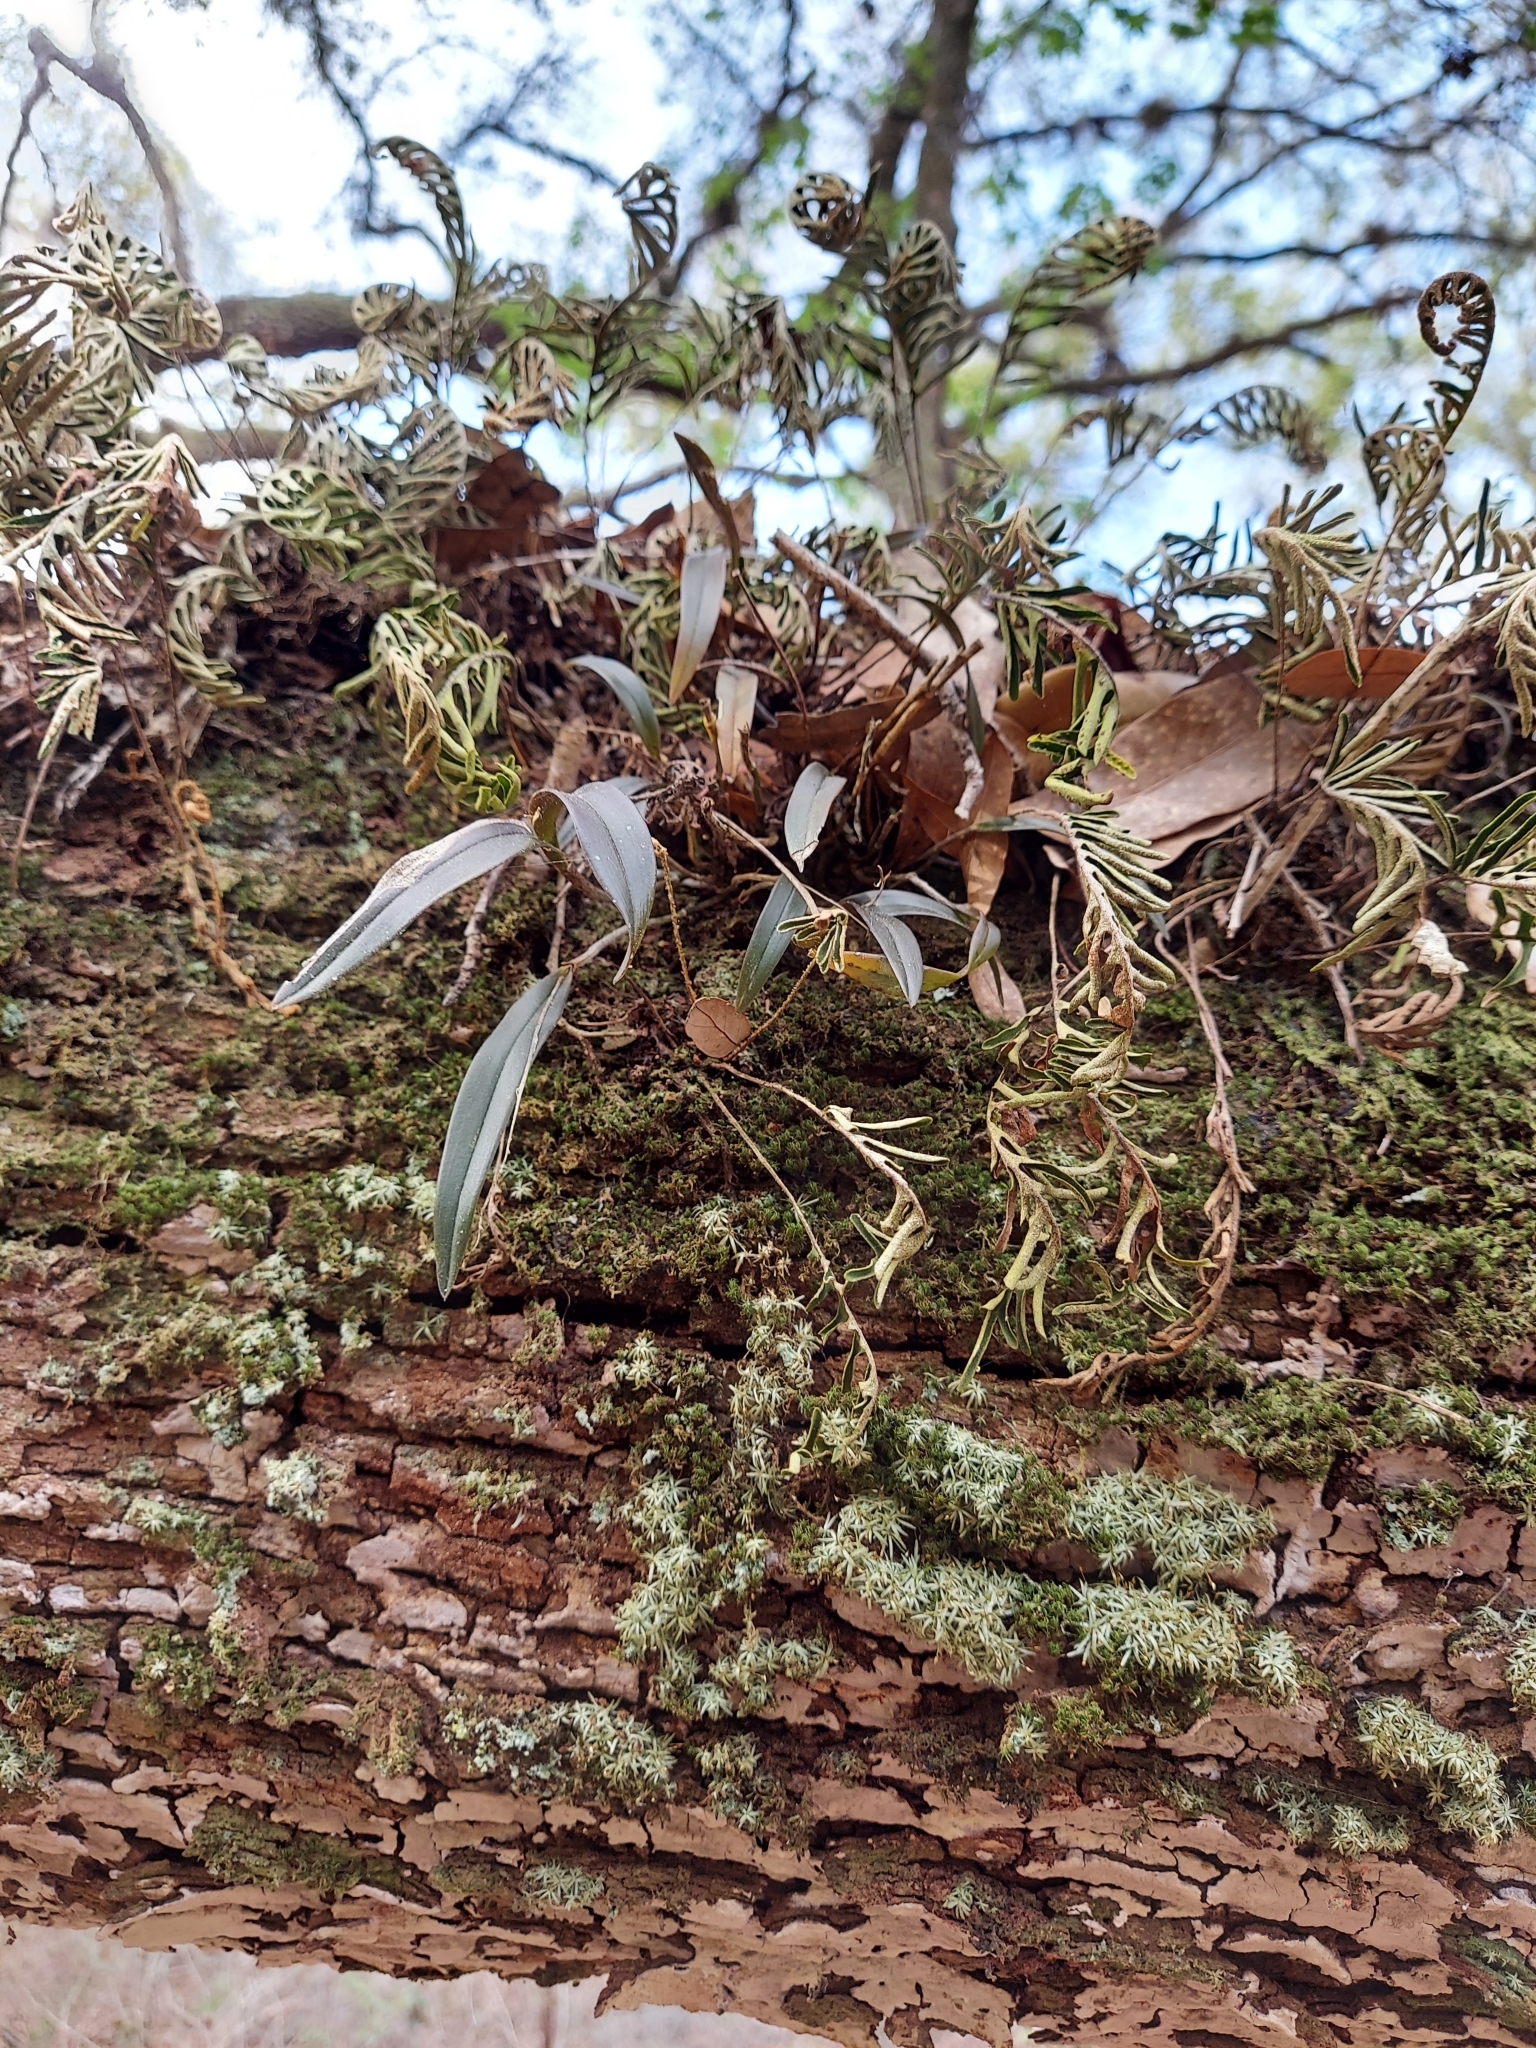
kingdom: Plantae
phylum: Tracheophyta
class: Liliopsida
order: Asparagales
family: Orchidaceae
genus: Epidendrum
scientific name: Epidendrum conopseum
